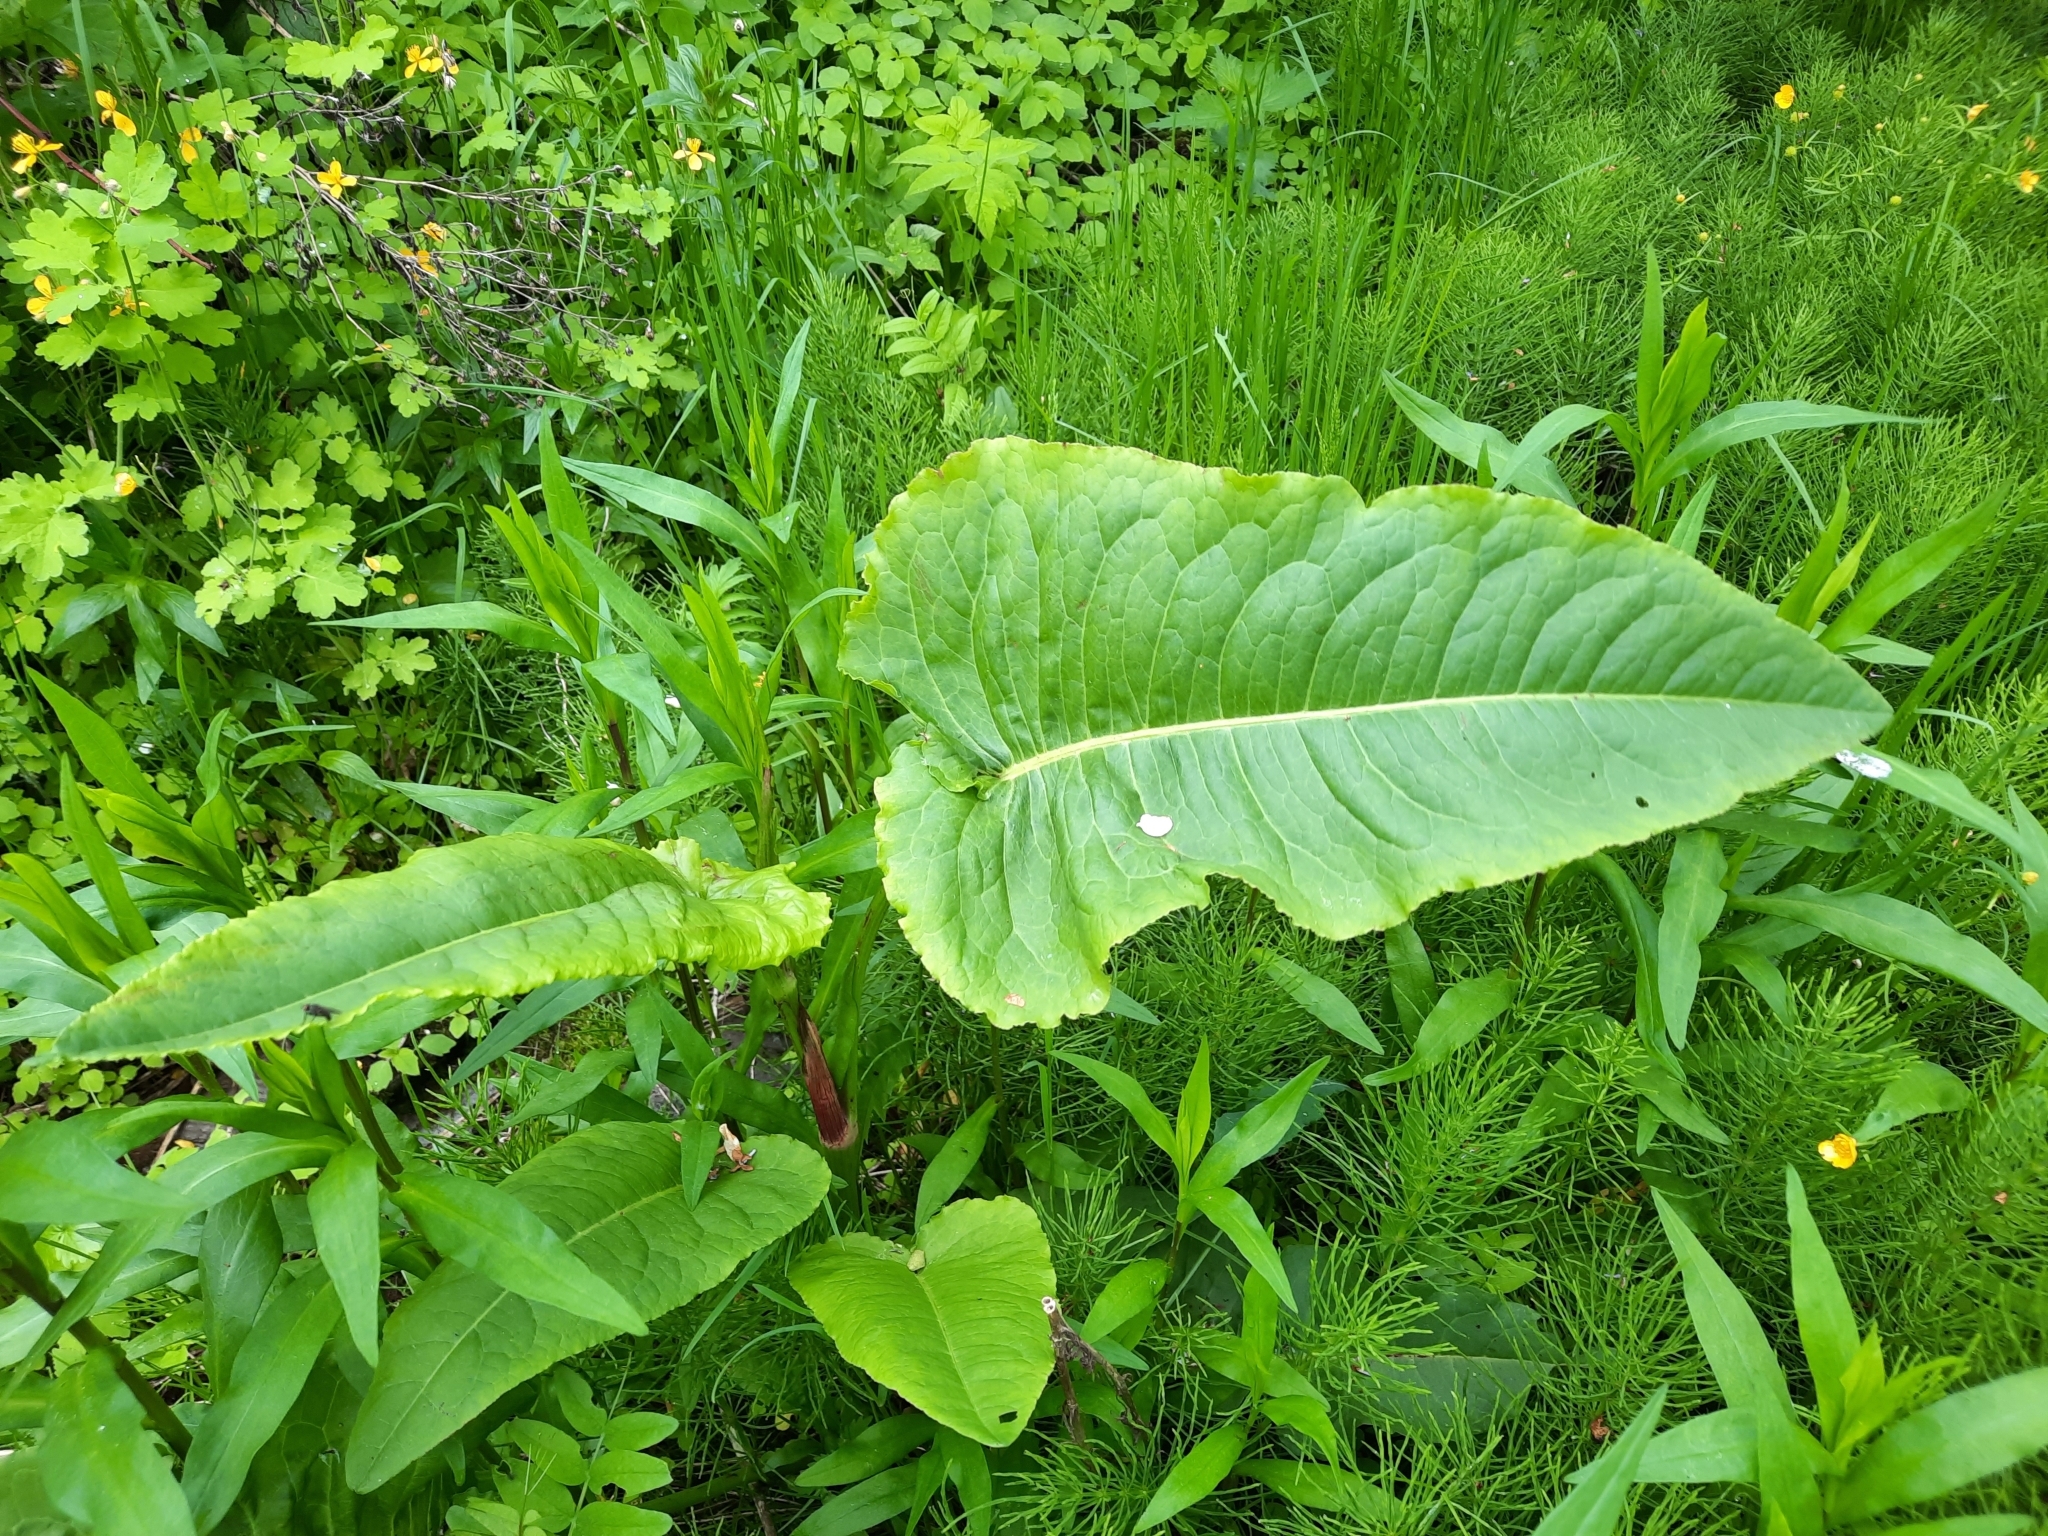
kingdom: Plantae
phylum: Tracheophyta
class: Magnoliopsida
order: Caryophyllales
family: Polygonaceae
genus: Rumex
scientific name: Rumex aquaticus
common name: Scottish dock
